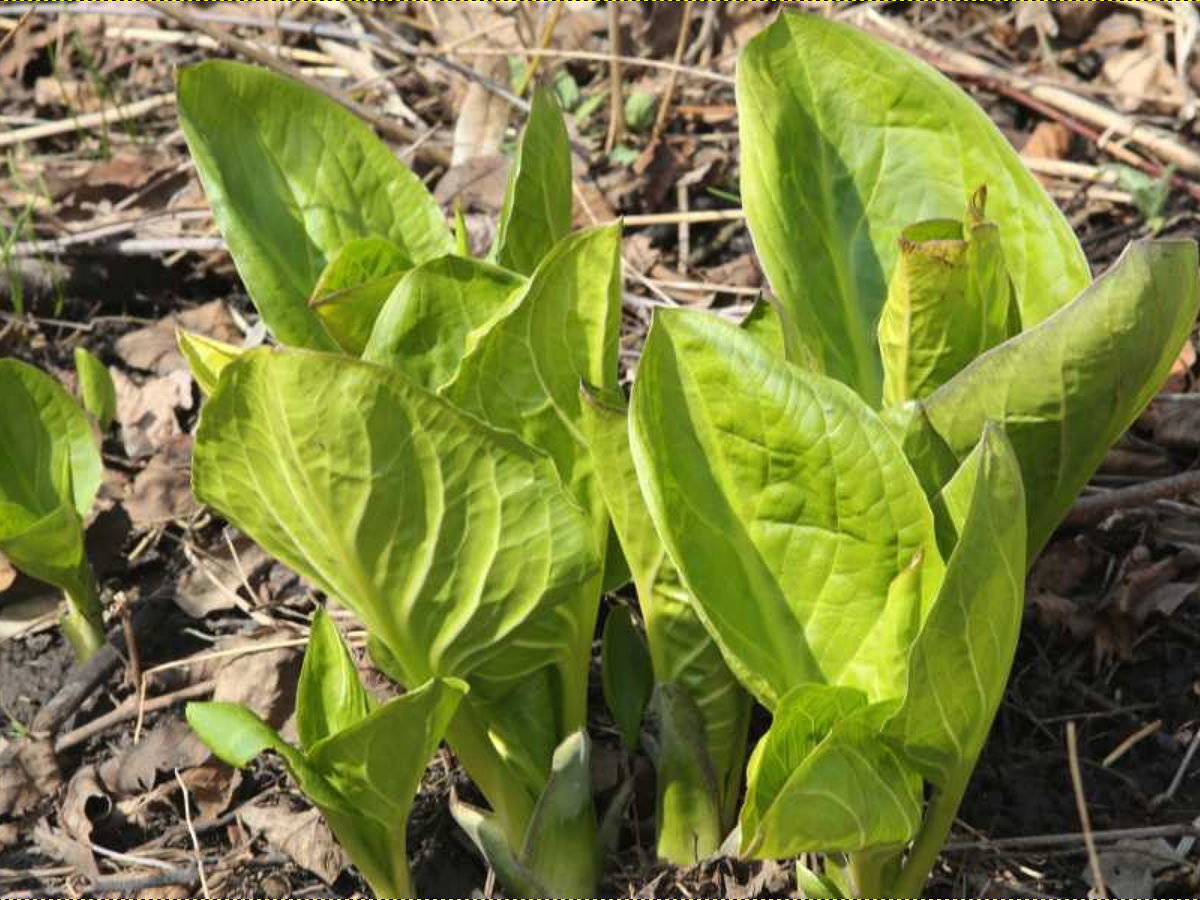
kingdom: Plantae
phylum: Tracheophyta
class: Liliopsida
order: Alismatales
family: Araceae
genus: Symplocarpus
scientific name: Symplocarpus foetidus
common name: Eastern skunk cabbage
